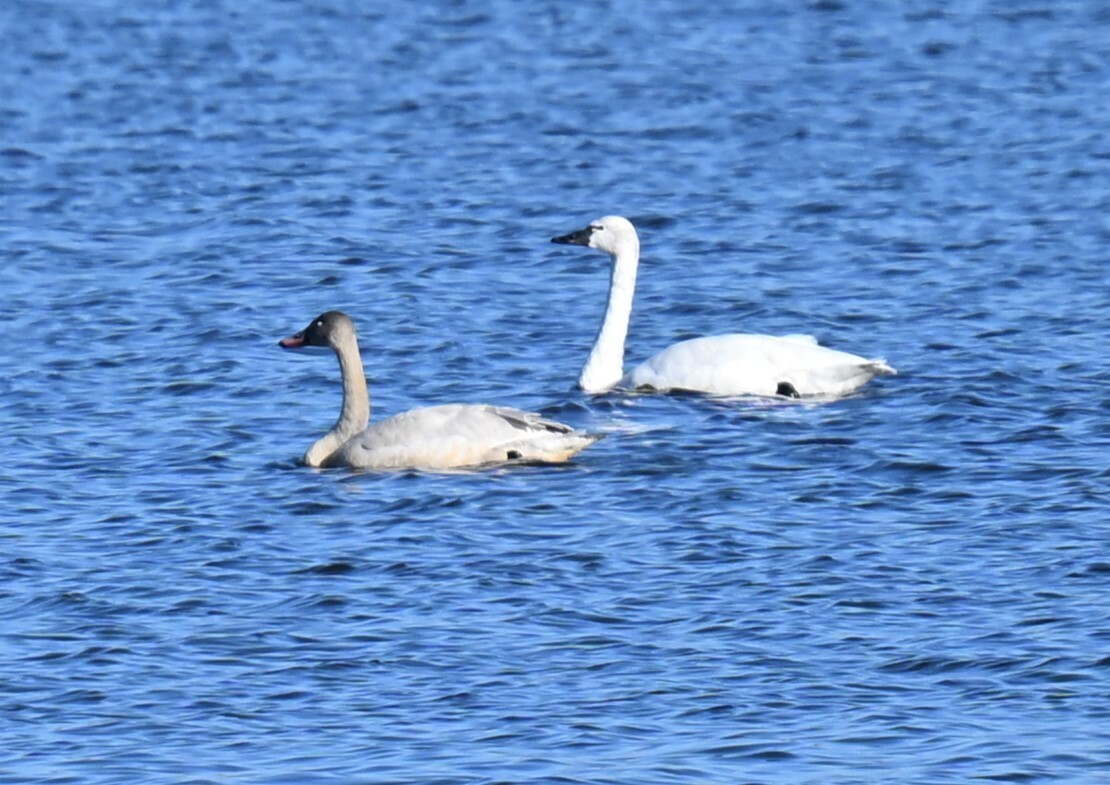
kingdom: Animalia
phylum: Chordata
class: Aves
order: Anseriformes
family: Anatidae
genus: Cygnus
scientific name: Cygnus columbianus
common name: Tundra swan
